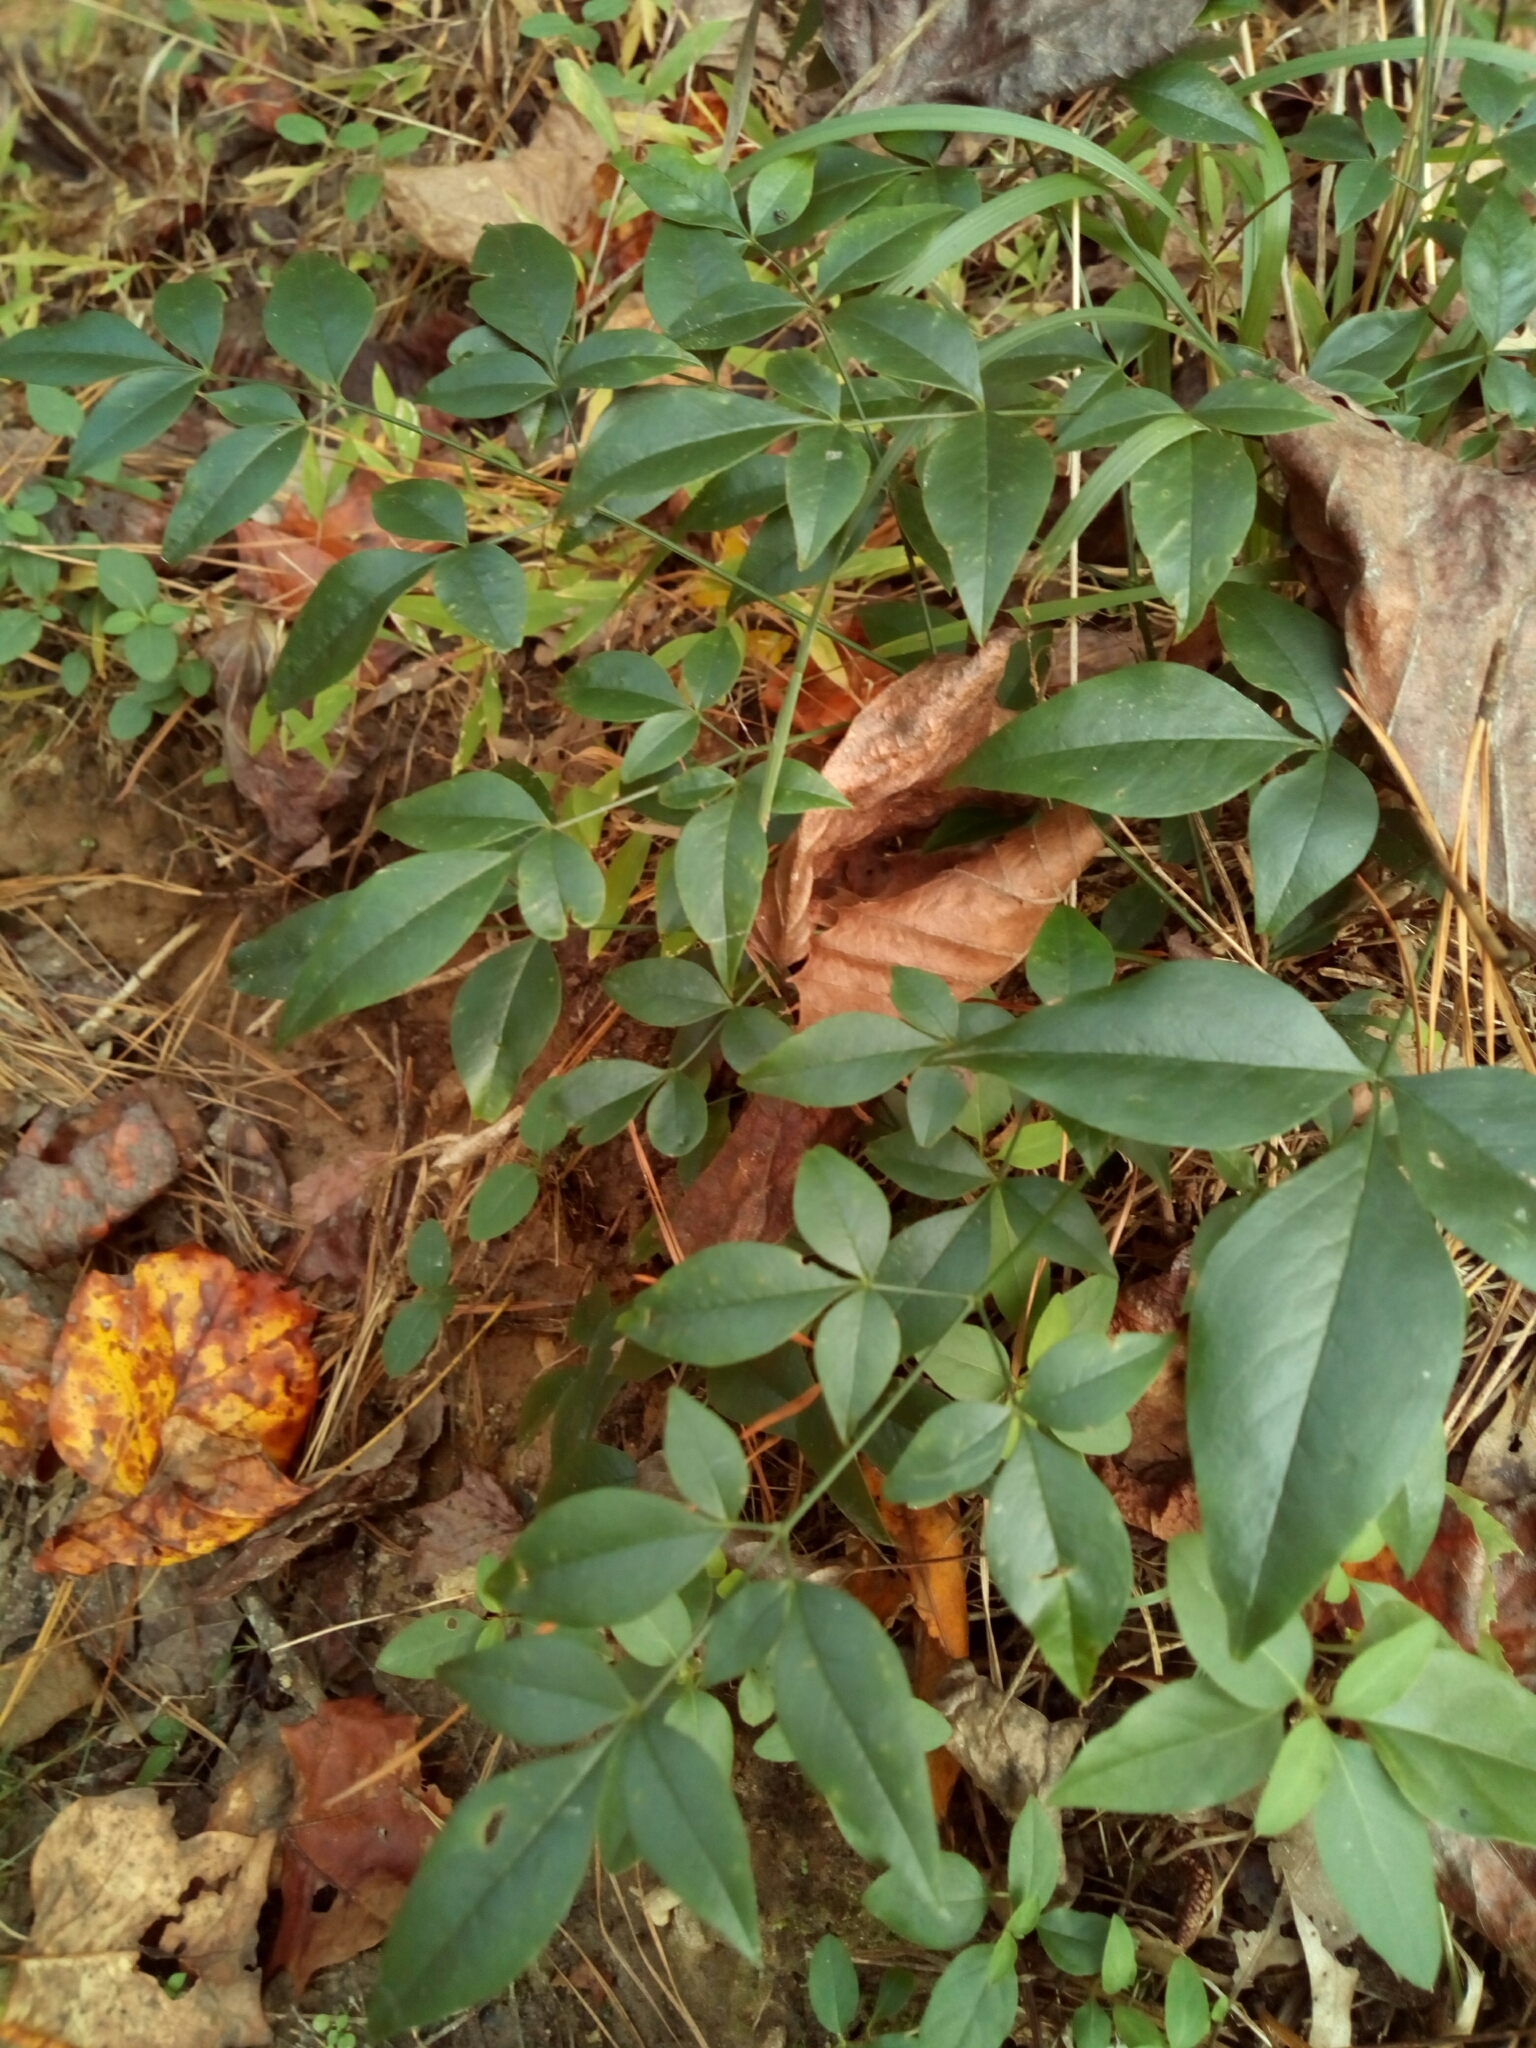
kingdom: Plantae
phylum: Tracheophyta
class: Magnoliopsida
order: Ranunculales
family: Berberidaceae
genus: Nandina
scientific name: Nandina domestica
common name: Sacred bamboo
